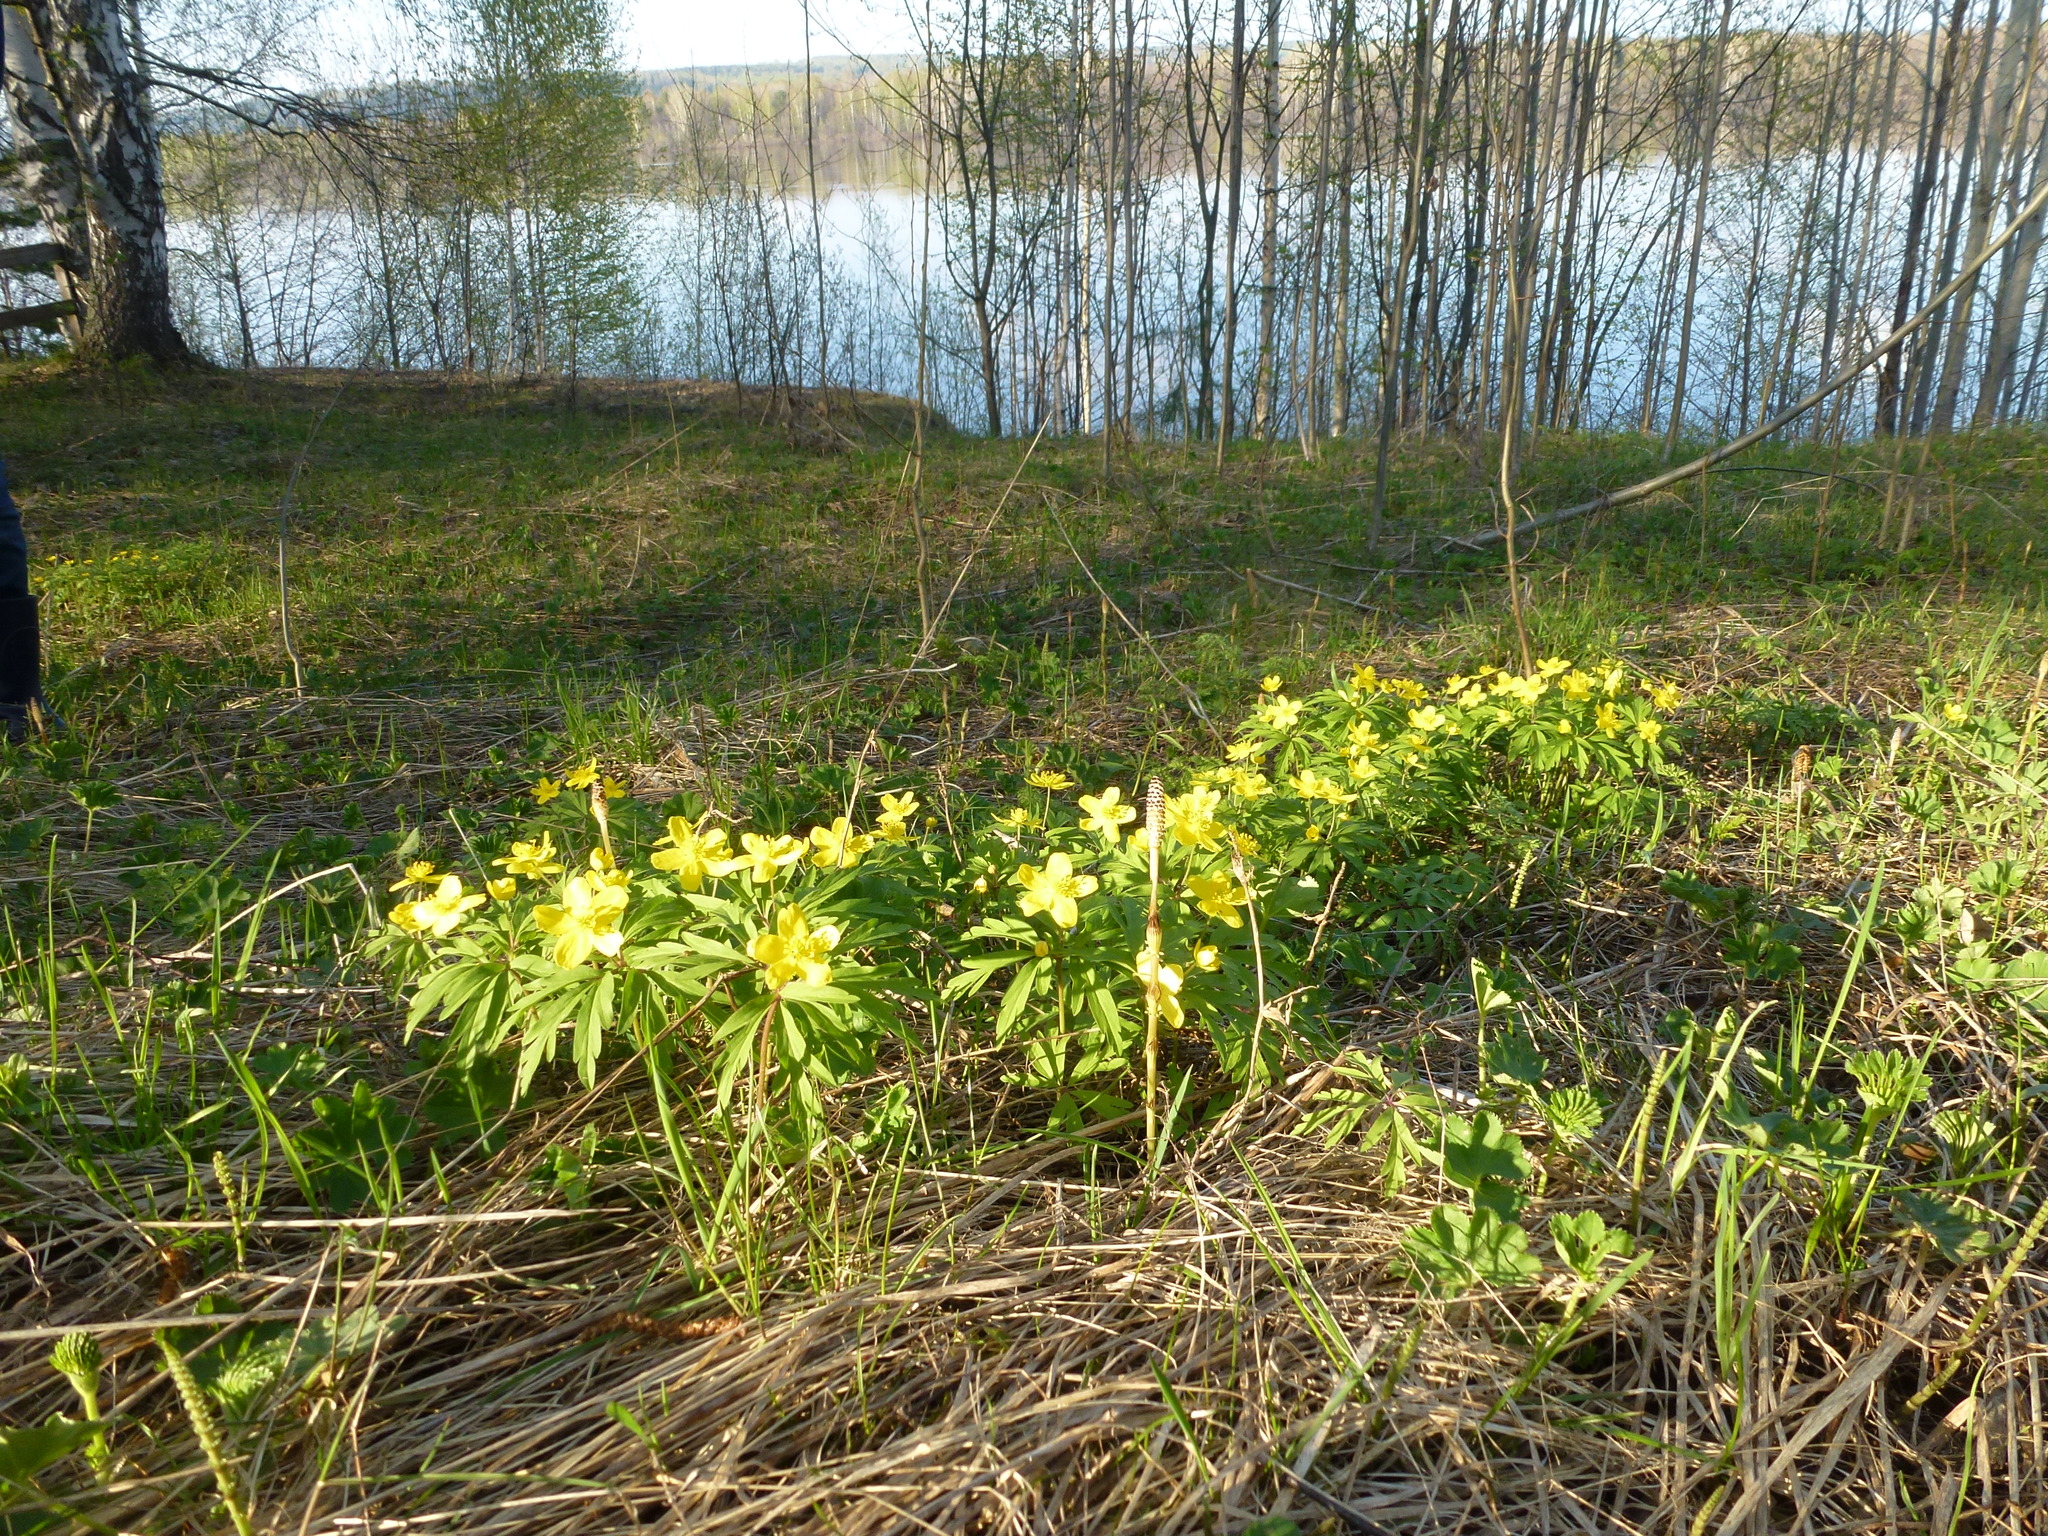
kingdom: Plantae
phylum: Tracheophyta
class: Magnoliopsida
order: Ranunculales
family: Ranunculaceae
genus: Anemone
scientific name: Anemone ranunculoides
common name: Yellow anemone
